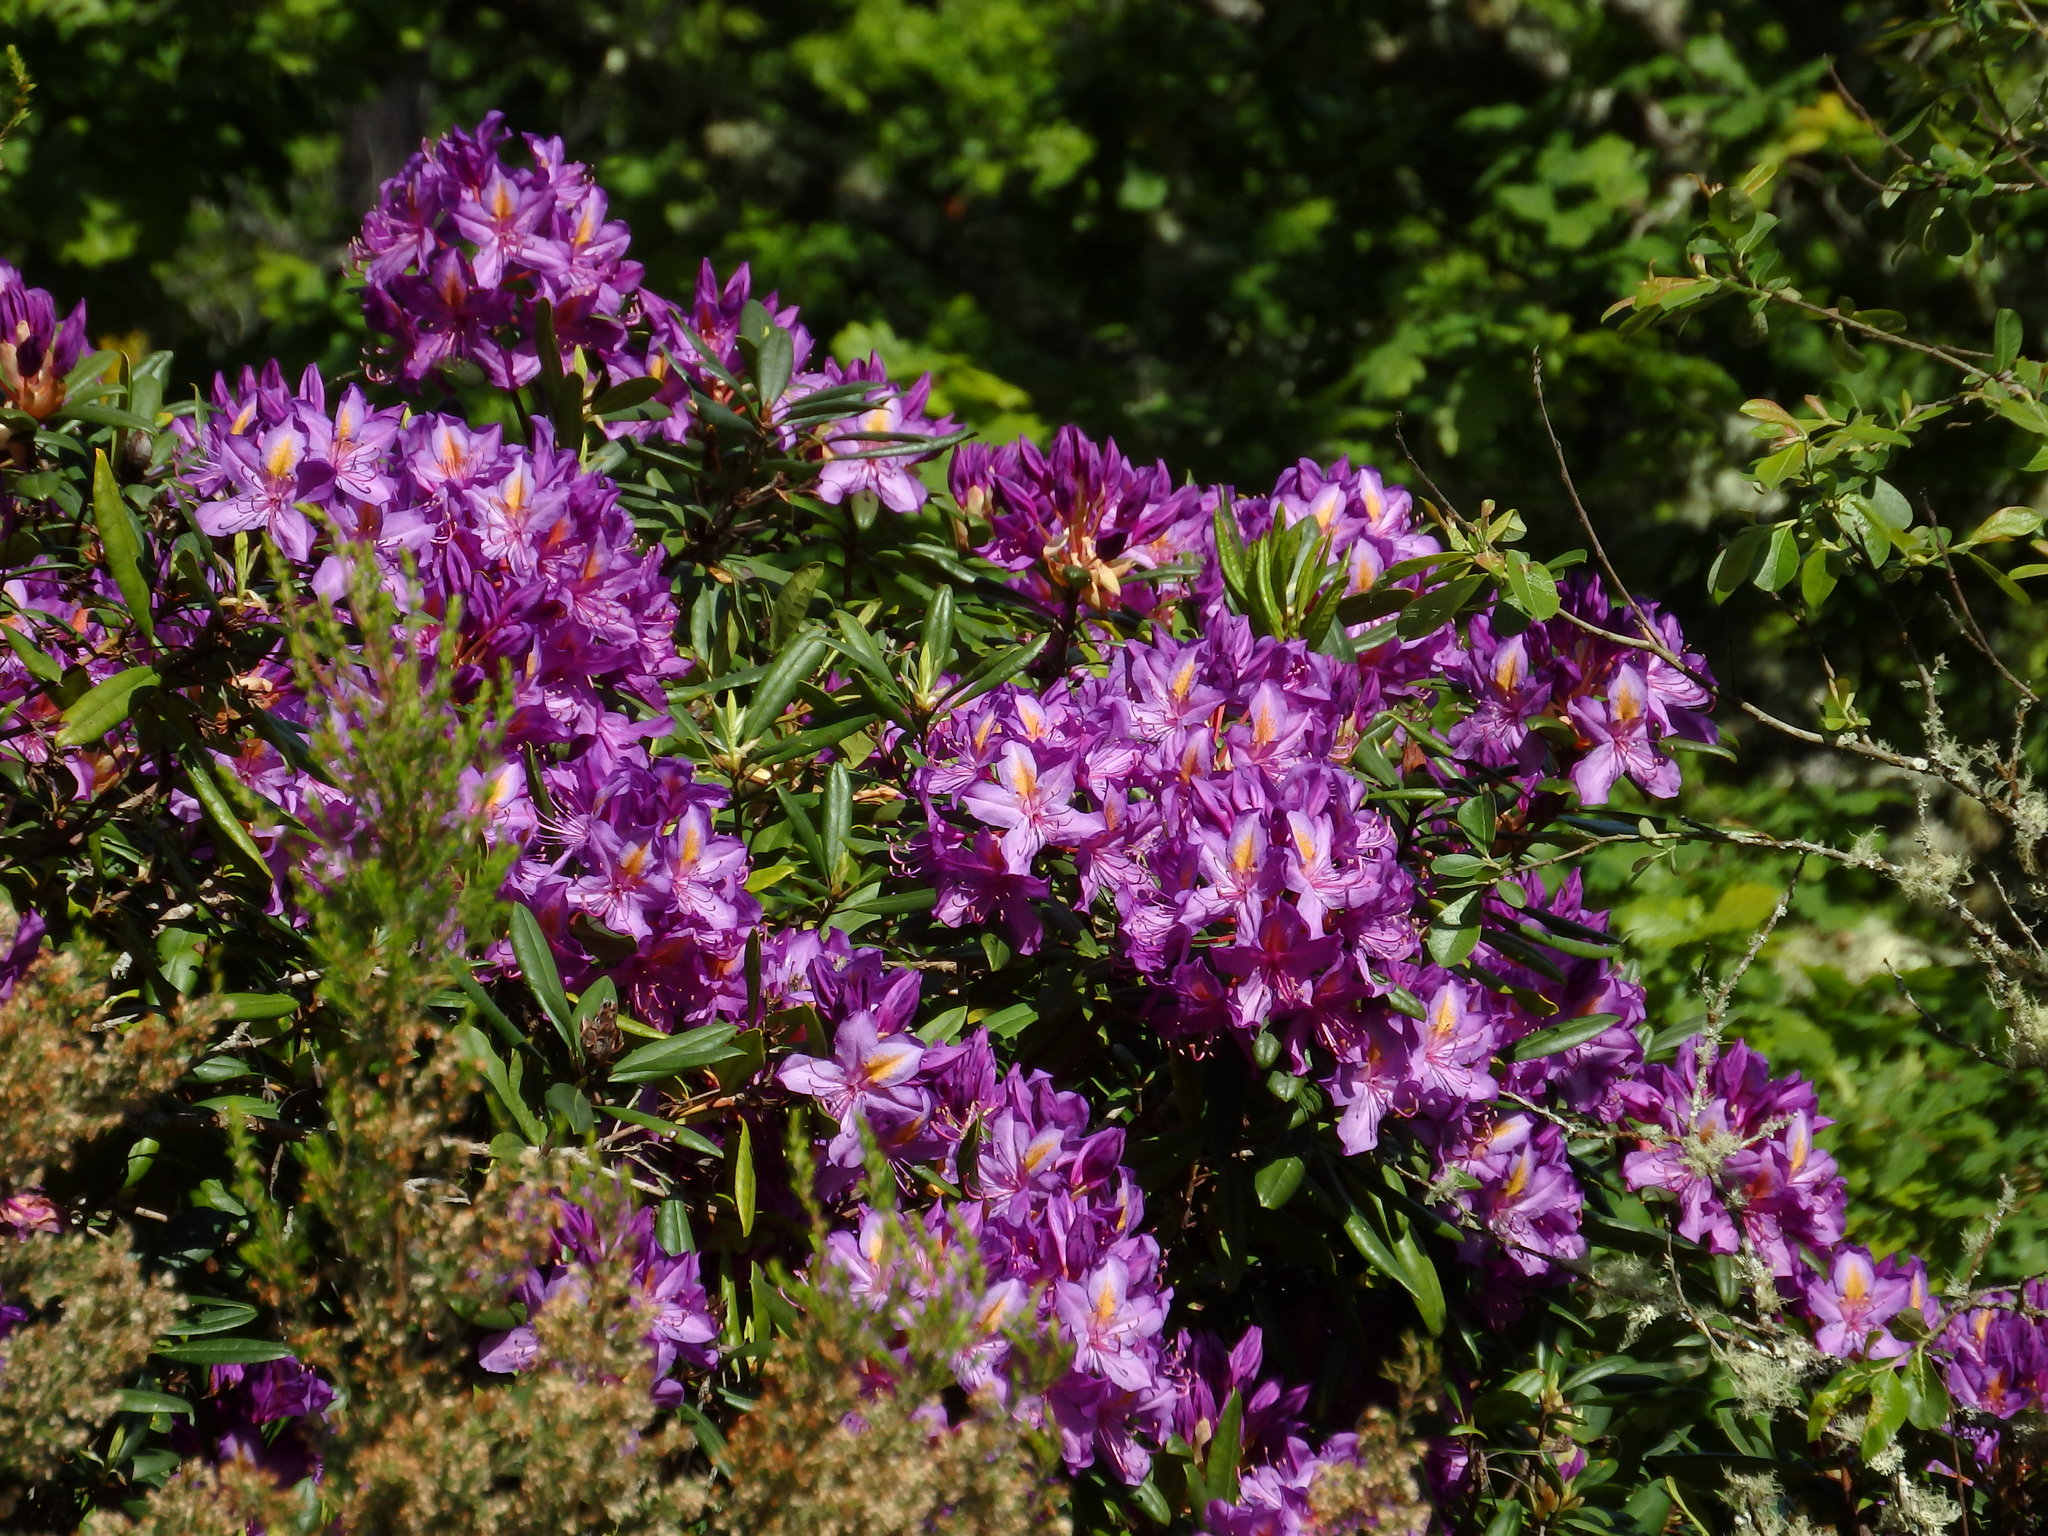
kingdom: Plantae
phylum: Tracheophyta
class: Magnoliopsida
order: Ericales
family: Ericaceae
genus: Rhododendron
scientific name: Rhododendron ponticum
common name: Rhododendron
